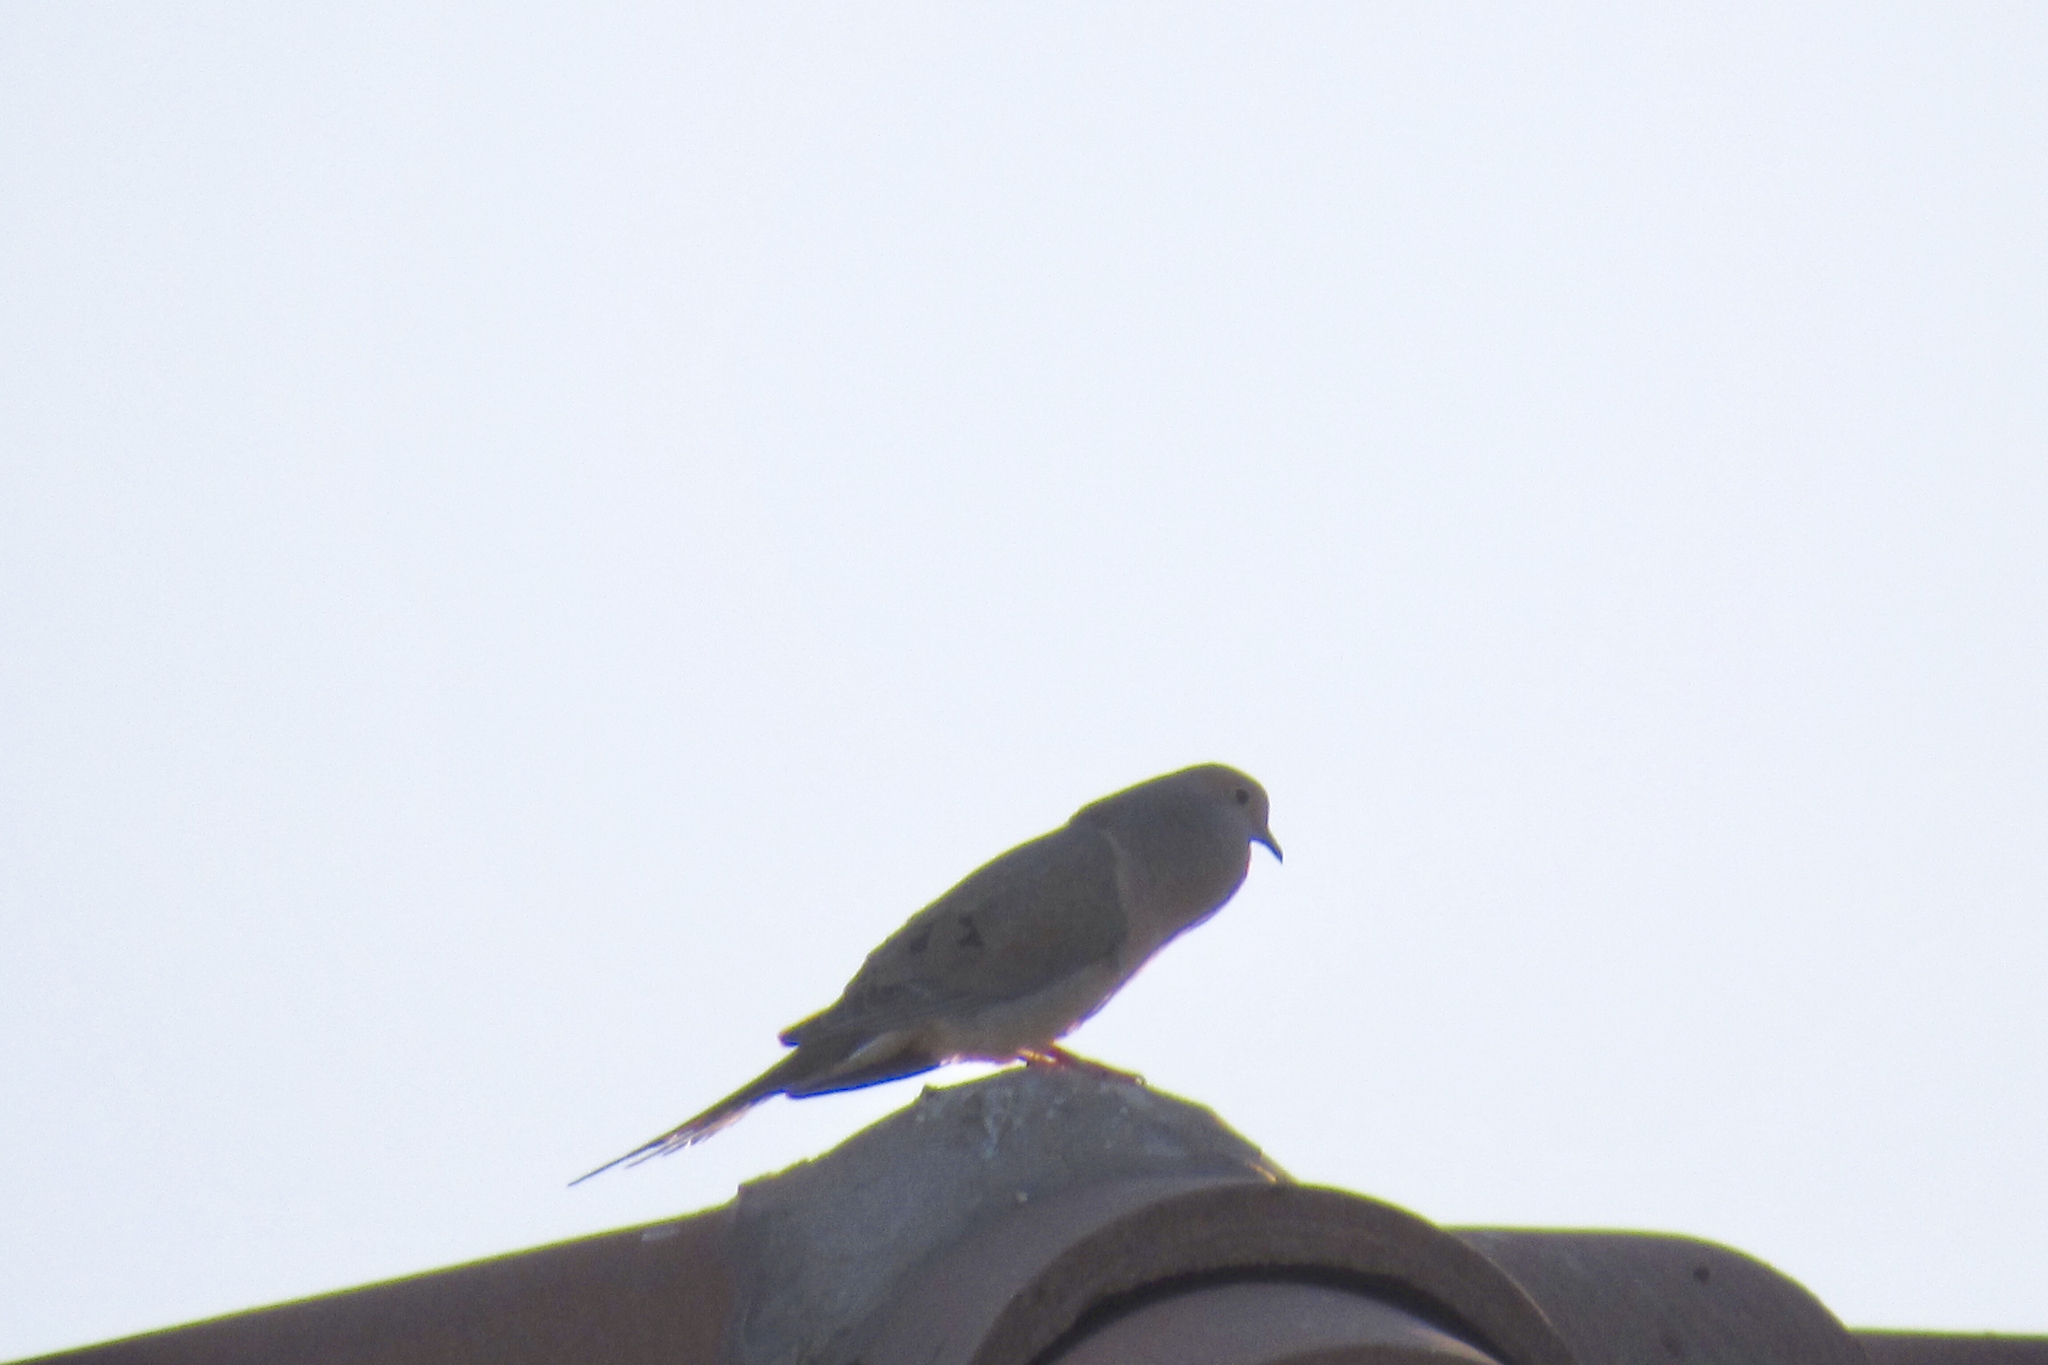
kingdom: Animalia
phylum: Chordata
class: Aves
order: Columbiformes
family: Columbidae
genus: Zenaida
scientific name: Zenaida macroura
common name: Mourning dove
